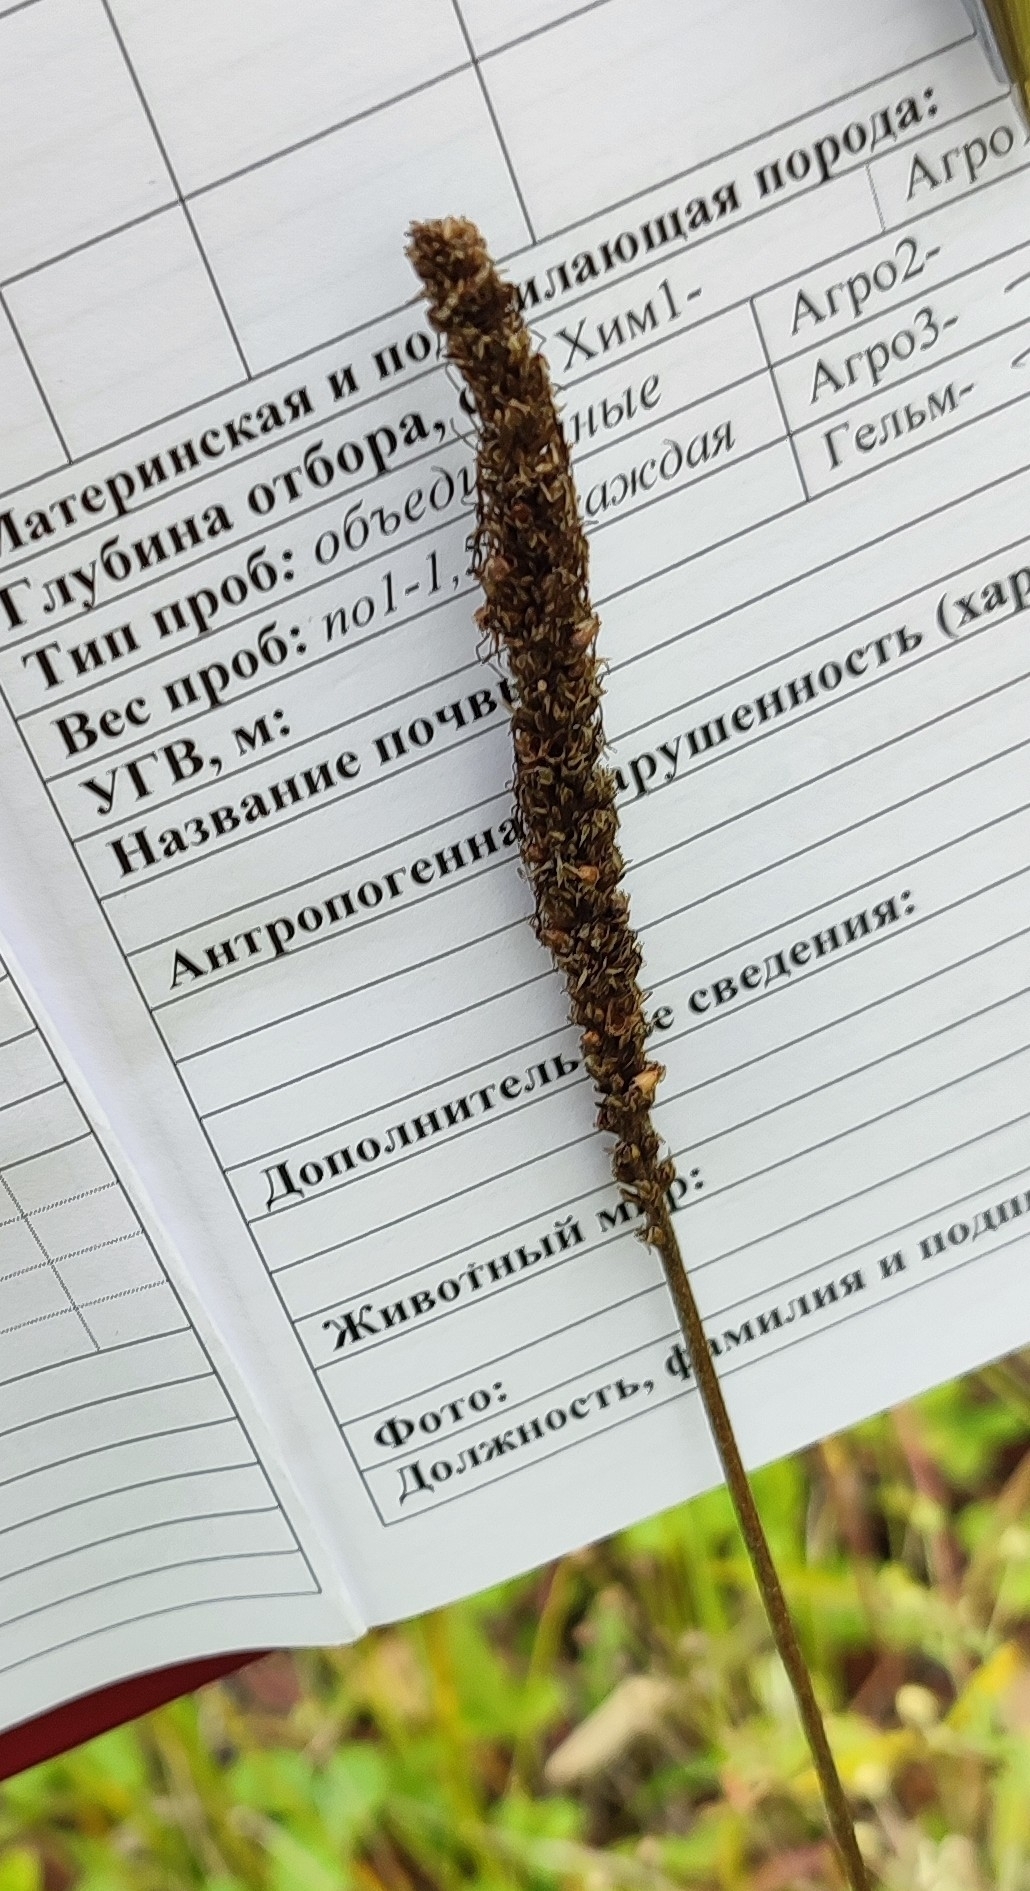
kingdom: Plantae
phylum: Tracheophyta
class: Magnoliopsida
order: Lamiales
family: Plantaginaceae
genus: Plantago
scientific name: Plantago urvillei
